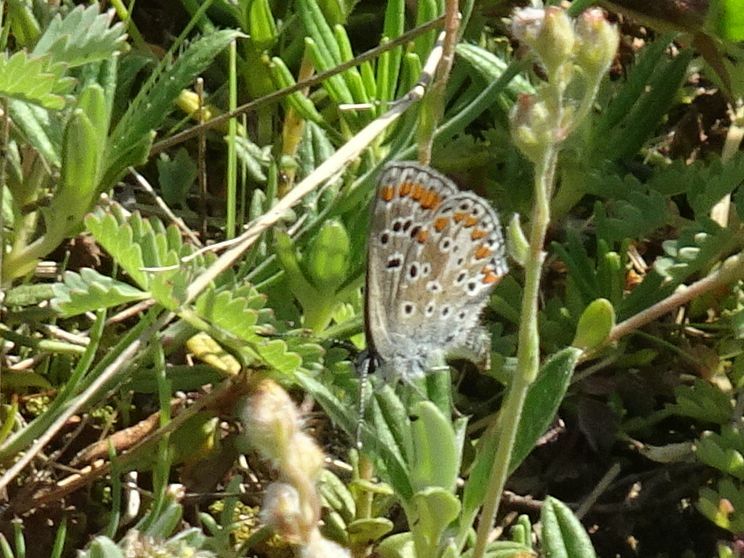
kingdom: Animalia
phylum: Arthropoda
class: Insecta
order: Lepidoptera
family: Lycaenidae
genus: Aricia
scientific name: Aricia agestis
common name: Brown argus
